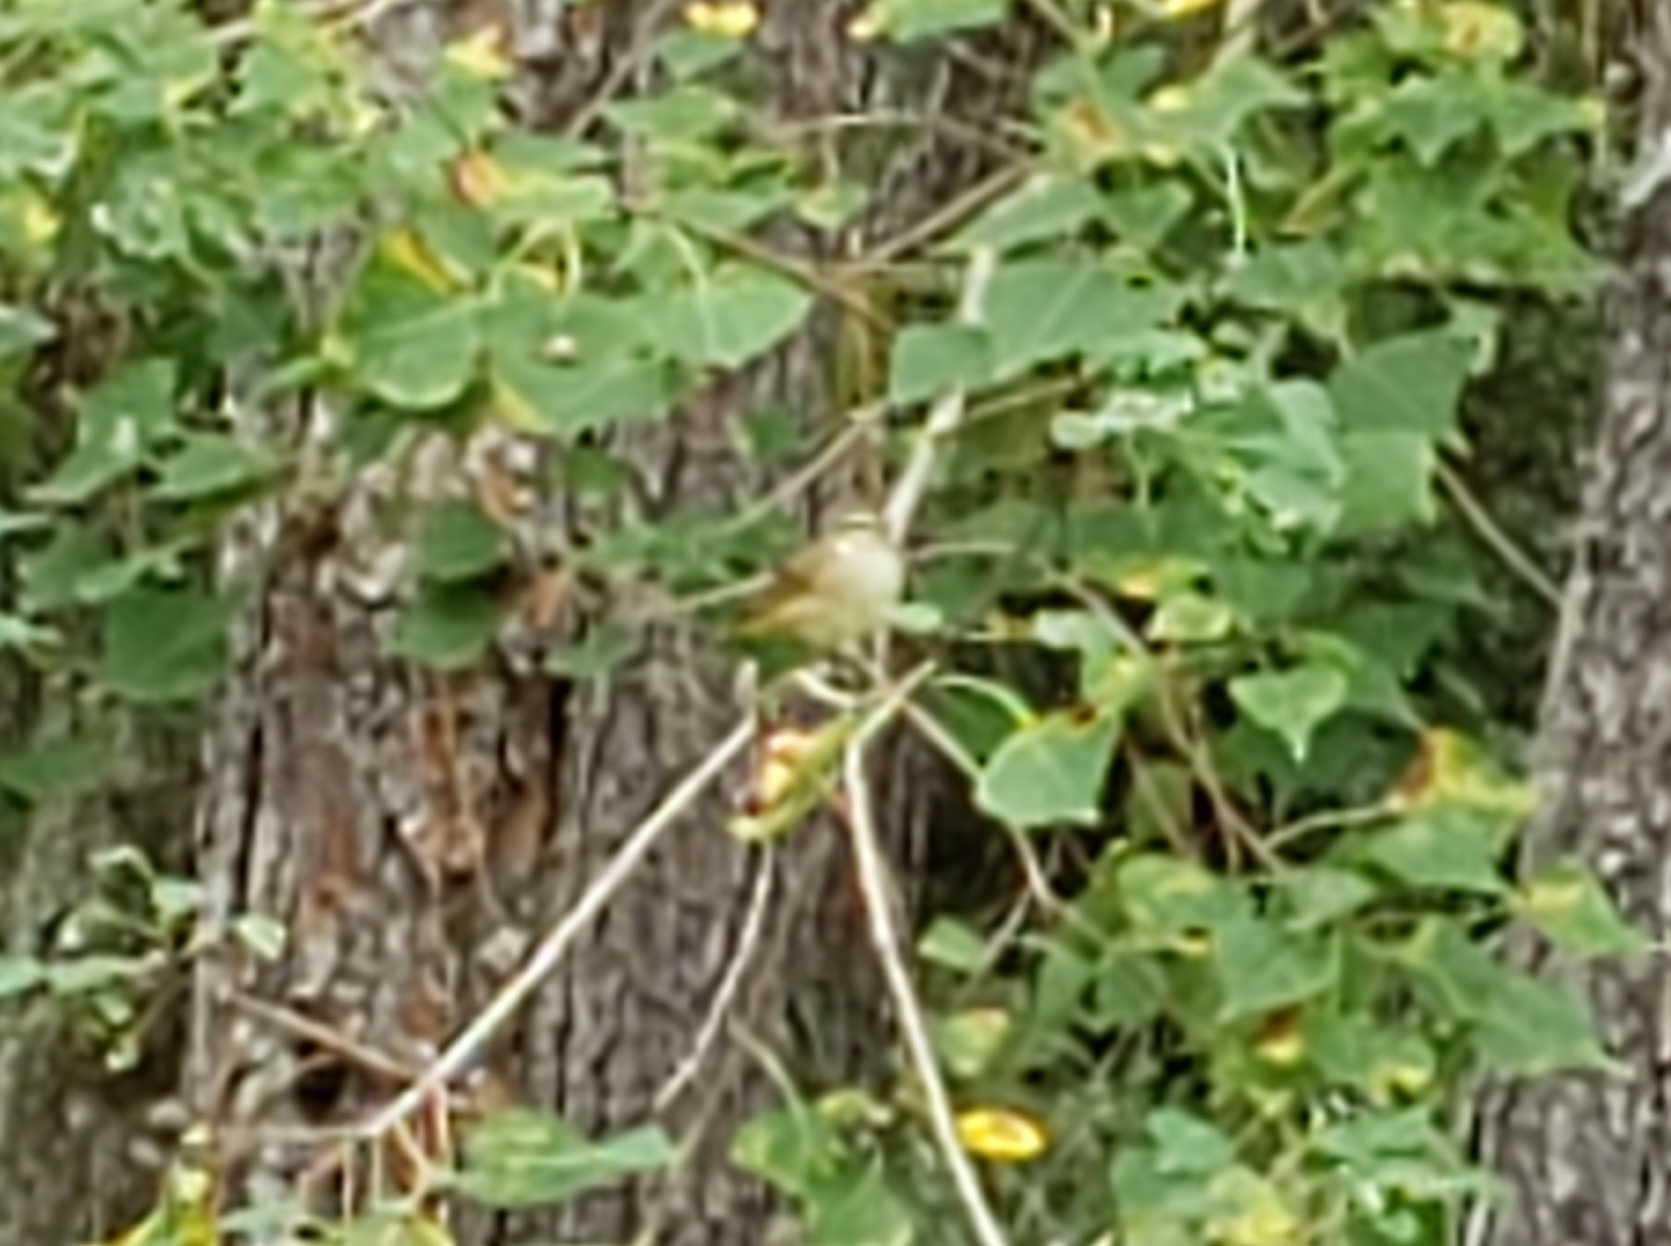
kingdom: Animalia
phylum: Chordata
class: Aves
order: Passeriformes
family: Parulidae
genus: Setophaga
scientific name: Setophaga palmarum
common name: Palm warbler
